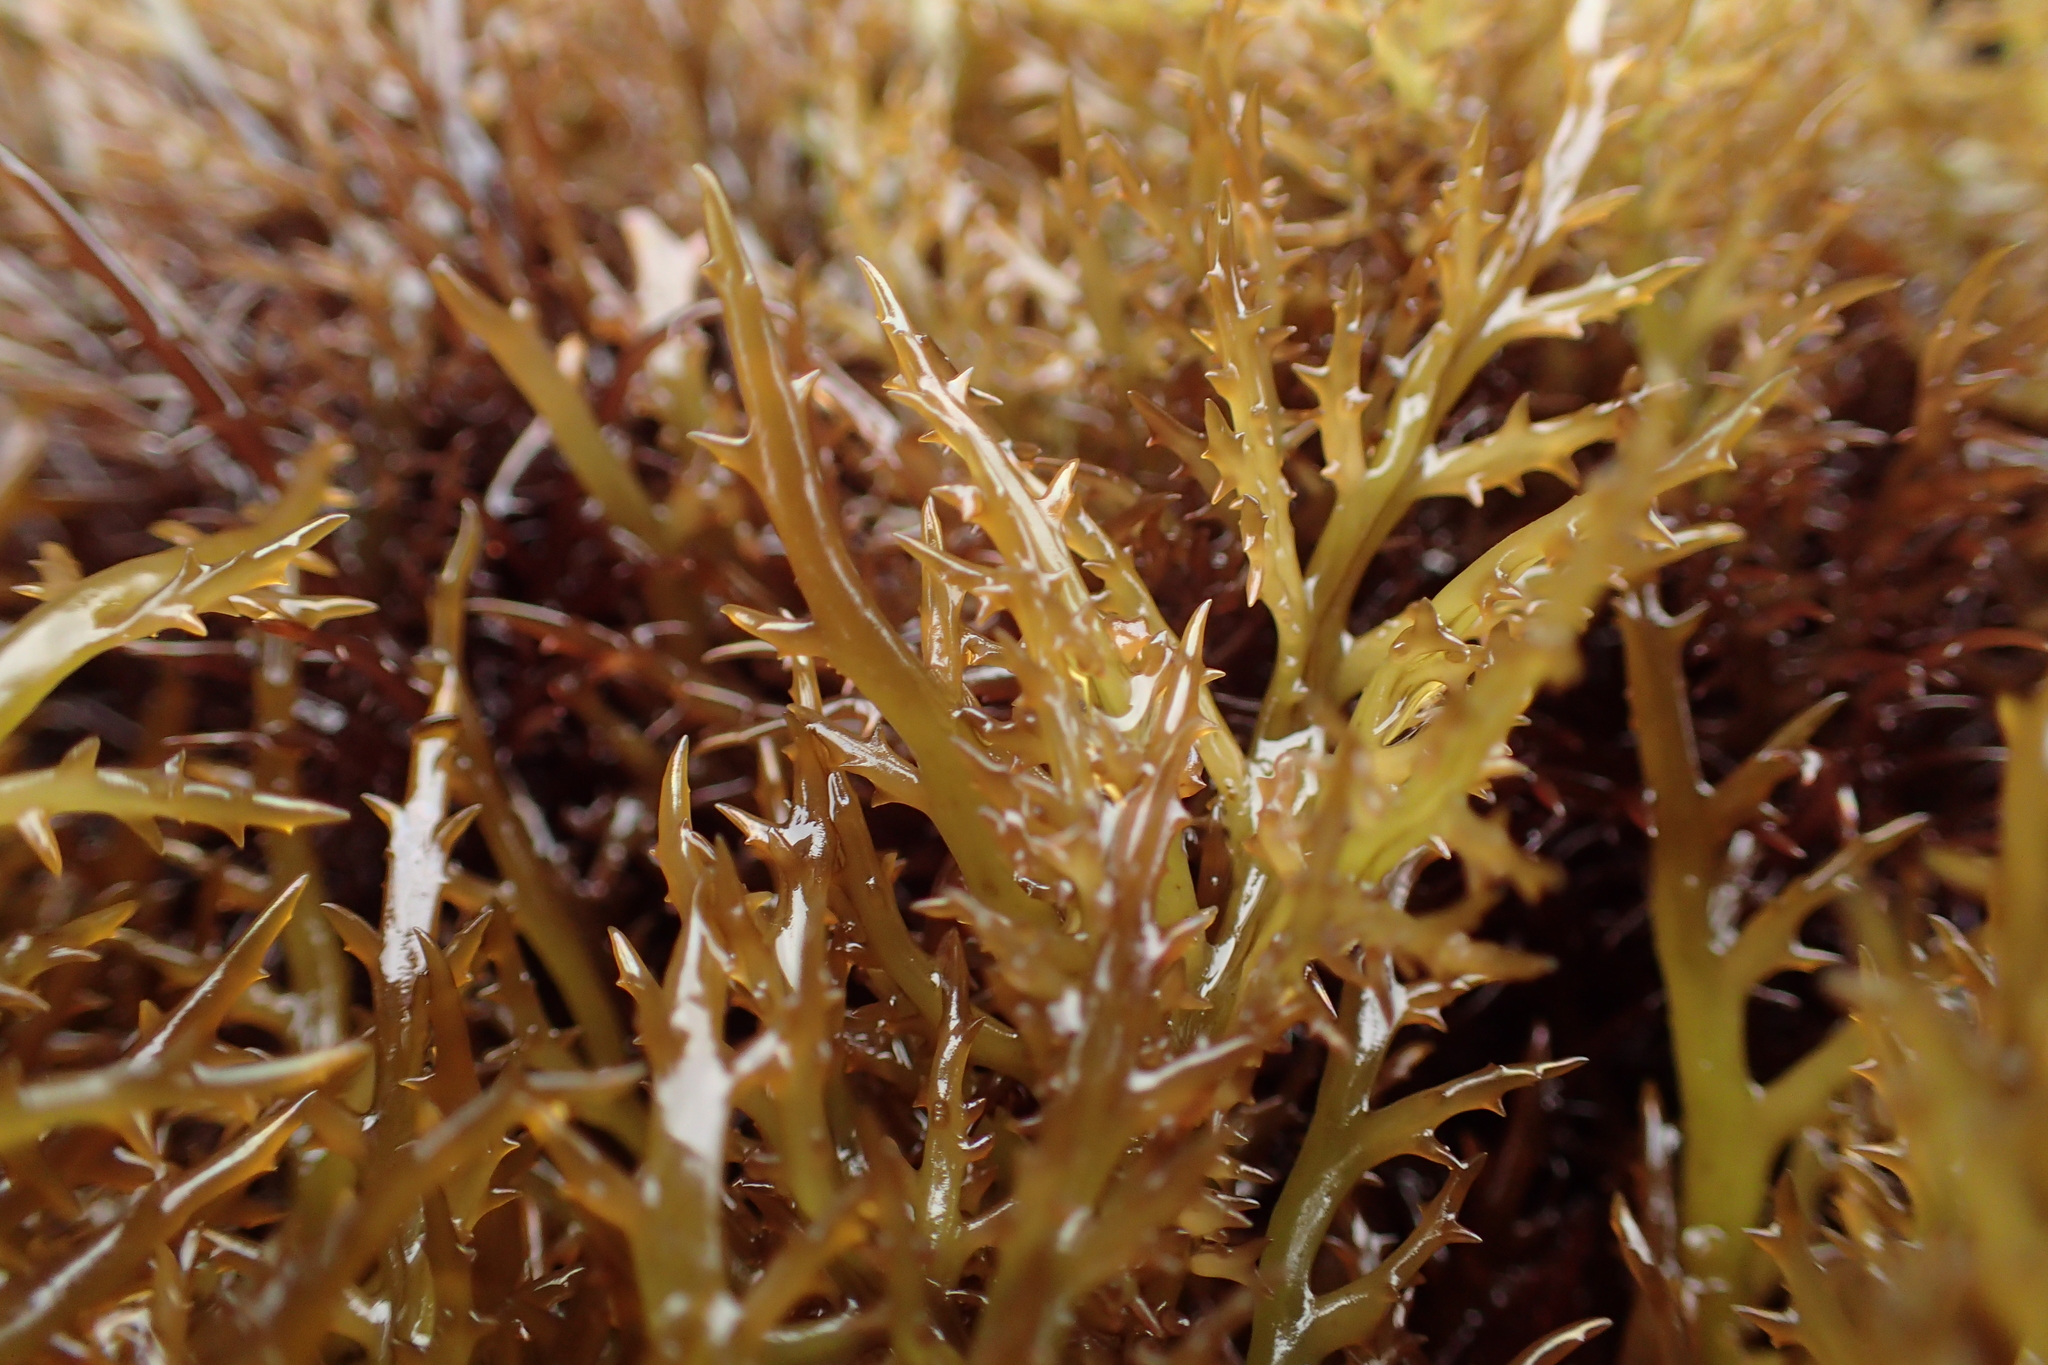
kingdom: Plantae
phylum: Rhodophyta
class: Florideophyceae
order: Gigartinales
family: Gigartinaceae
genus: Chondracanthus
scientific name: Chondracanthus canaliculatus
